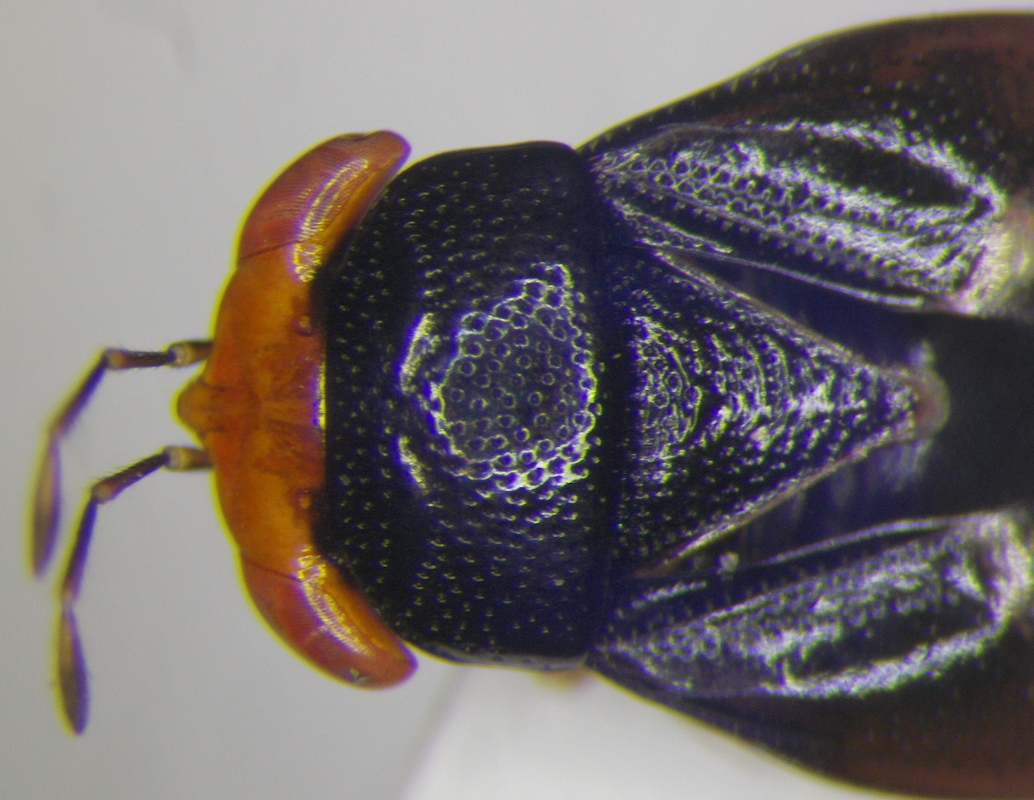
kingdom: Animalia
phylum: Arthropoda
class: Insecta
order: Hemiptera
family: Geocoridae
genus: Geocoris
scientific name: Geocoris erythrocephala
